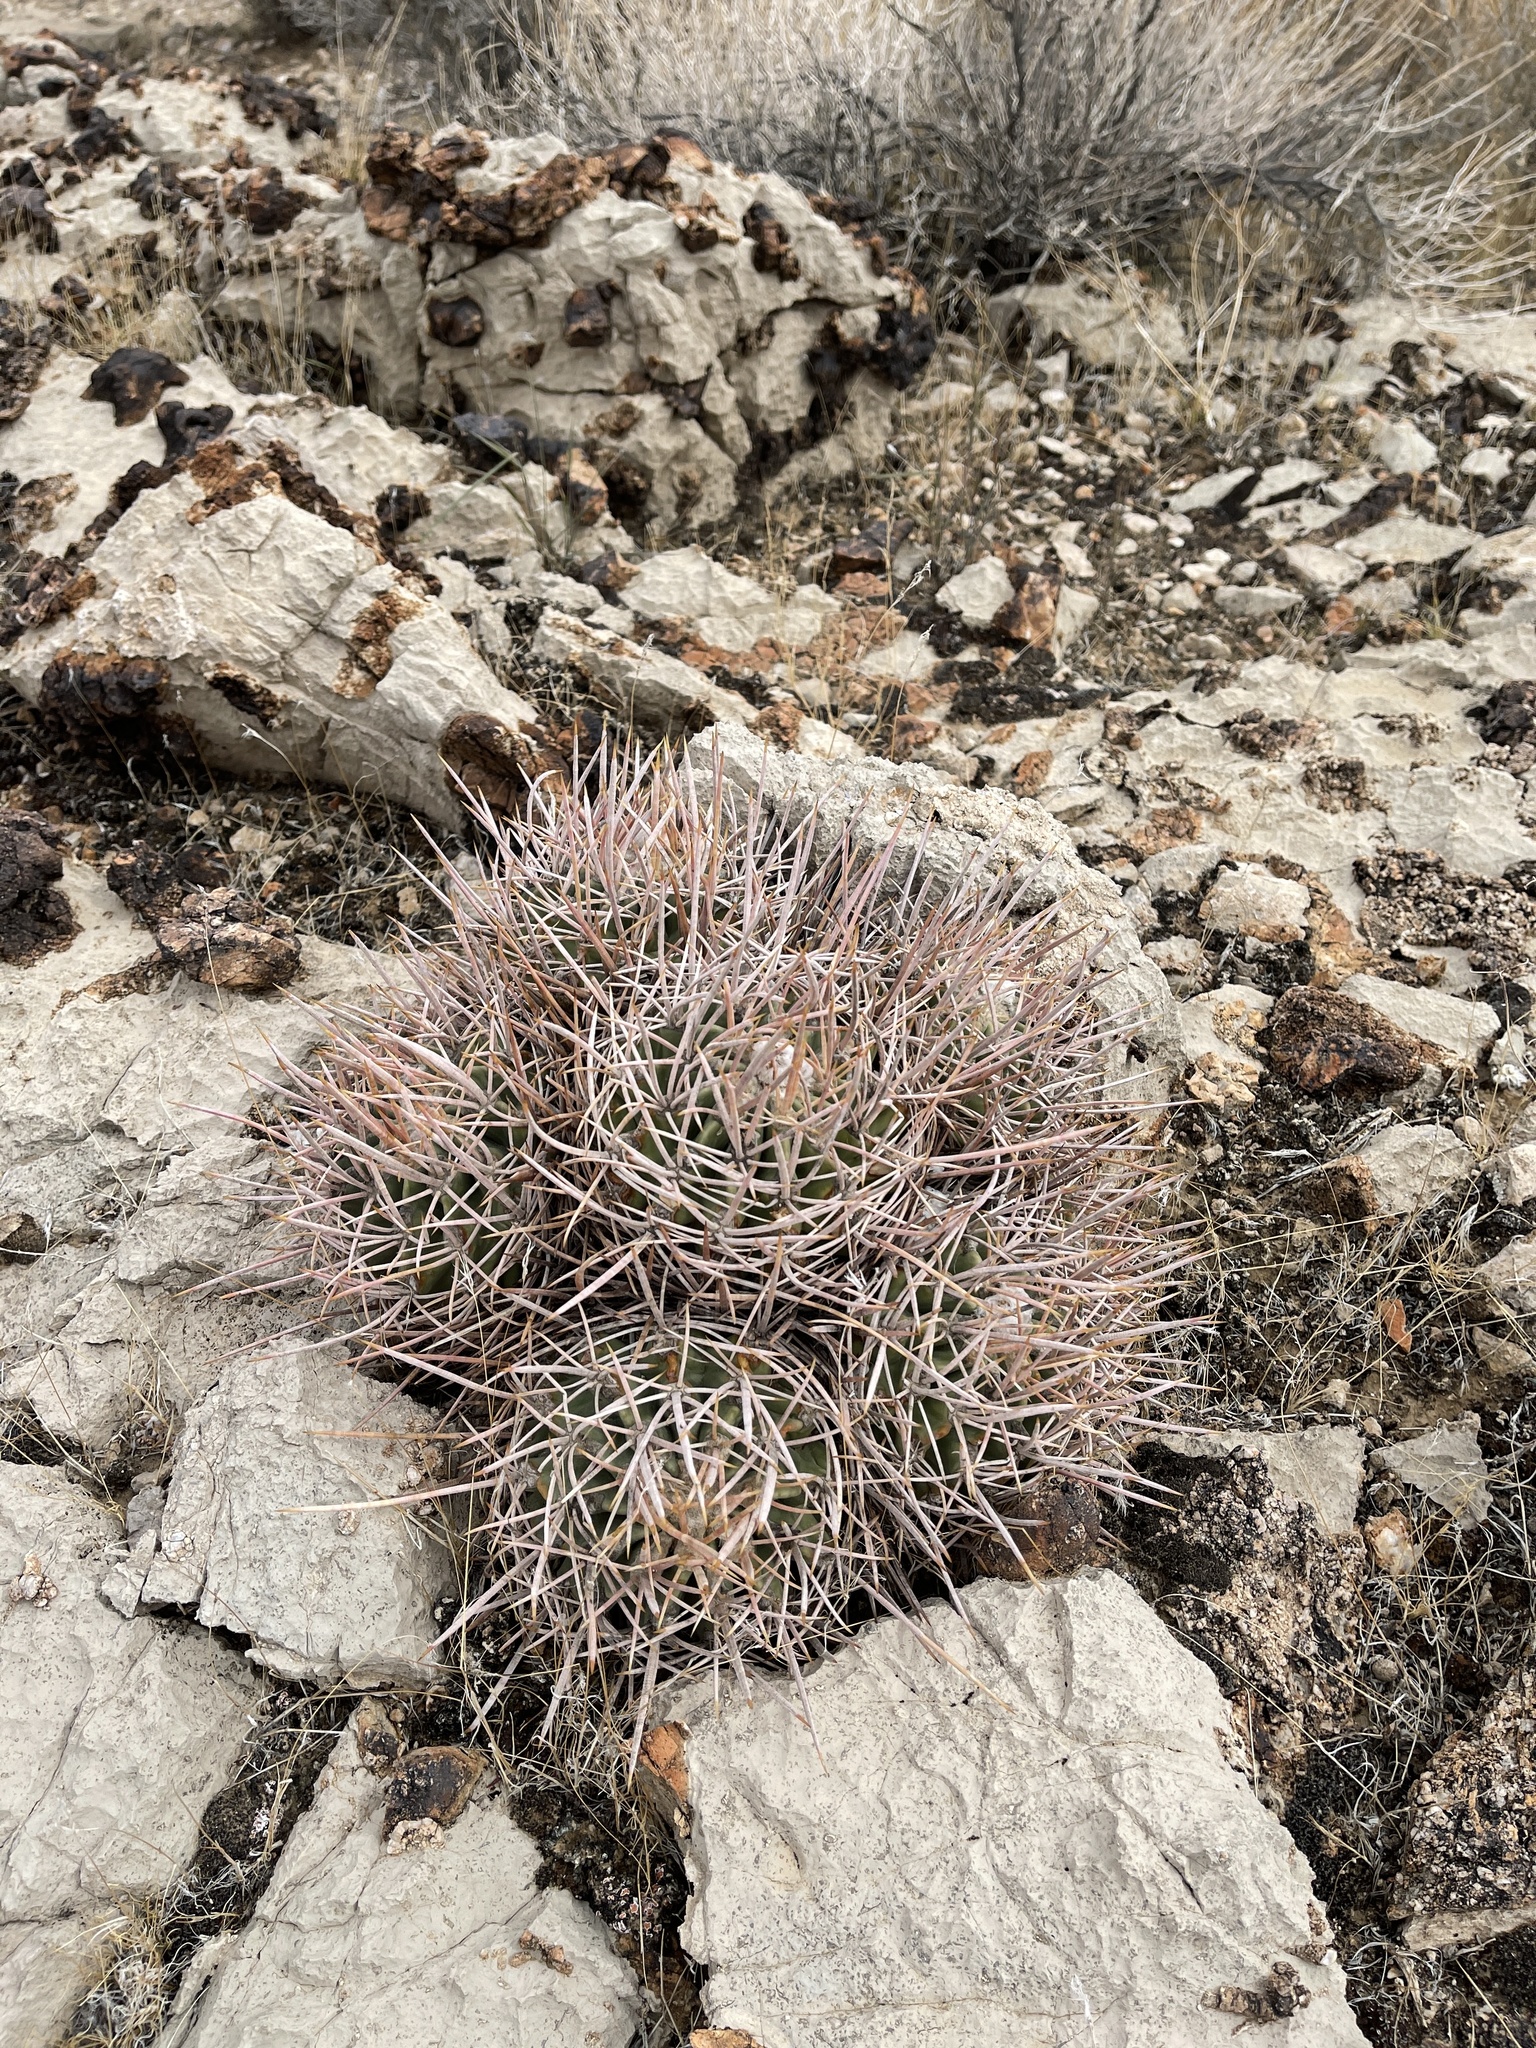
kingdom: Plantae
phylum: Tracheophyta
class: Magnoliopsida
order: Caryophyllales
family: Cactaceae
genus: Echinocactus
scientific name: Echinocactus polycephalus
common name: Cottontop cactus
